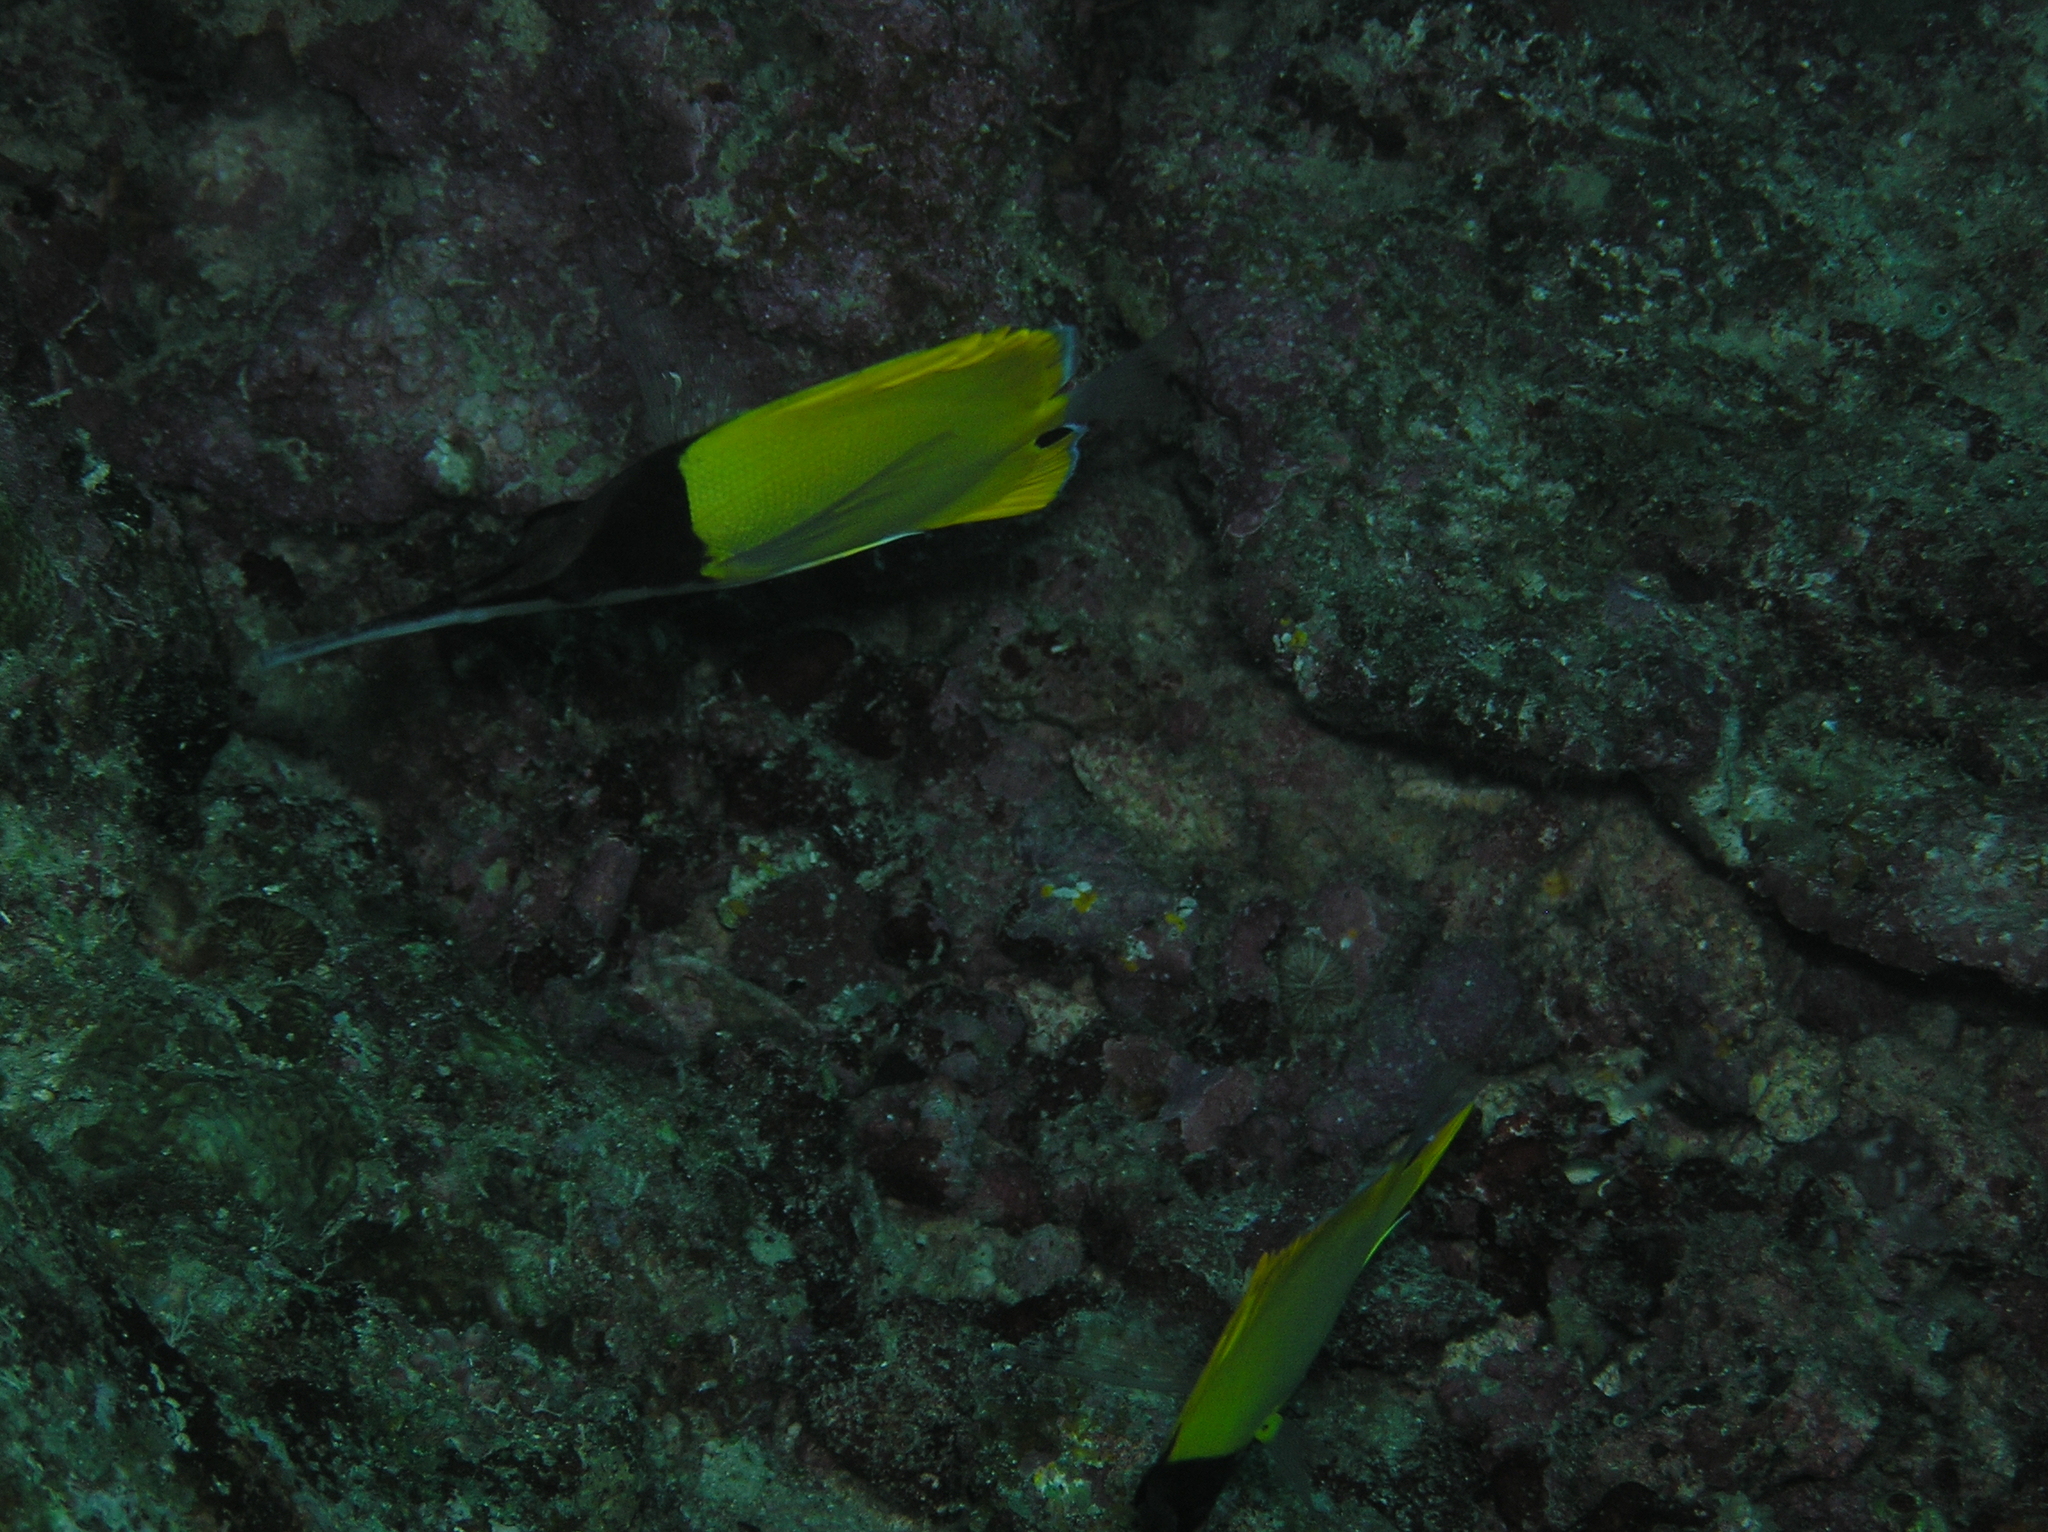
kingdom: Animalia
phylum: Chordata
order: Perciformes
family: Chaetodontidae
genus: Forcipiger
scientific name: Forcipiger longirostris
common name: Longnose butterflyfish
